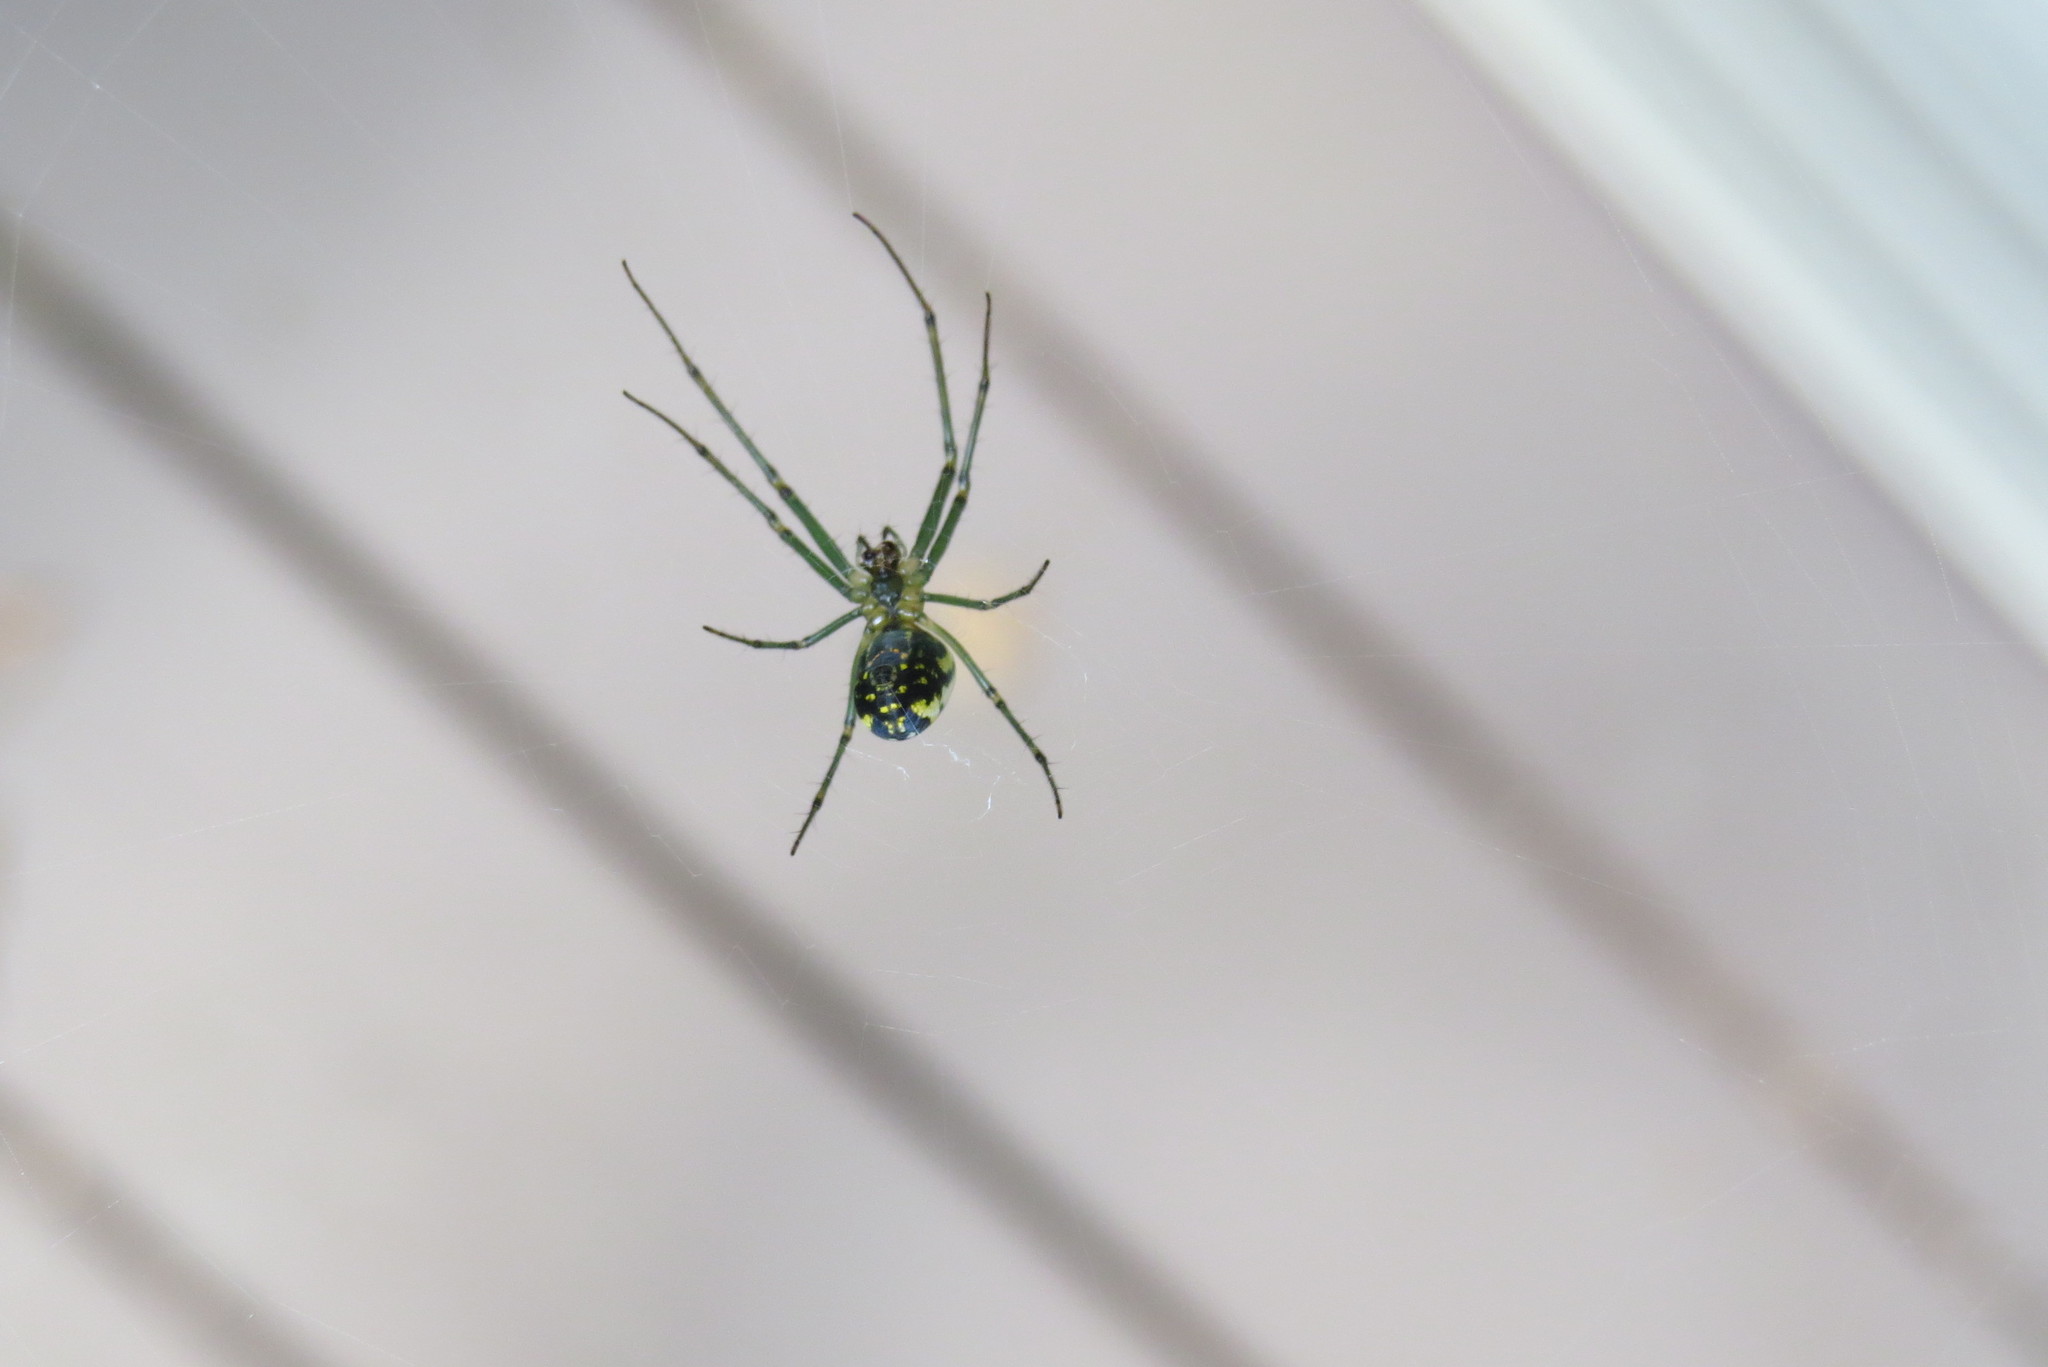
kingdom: Animalia
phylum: Arthropoda
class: Arachnida
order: Araneae
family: Tetragnathidae
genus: Leucauge
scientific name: Leucauge venusta
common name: Longjawed orb weavers
